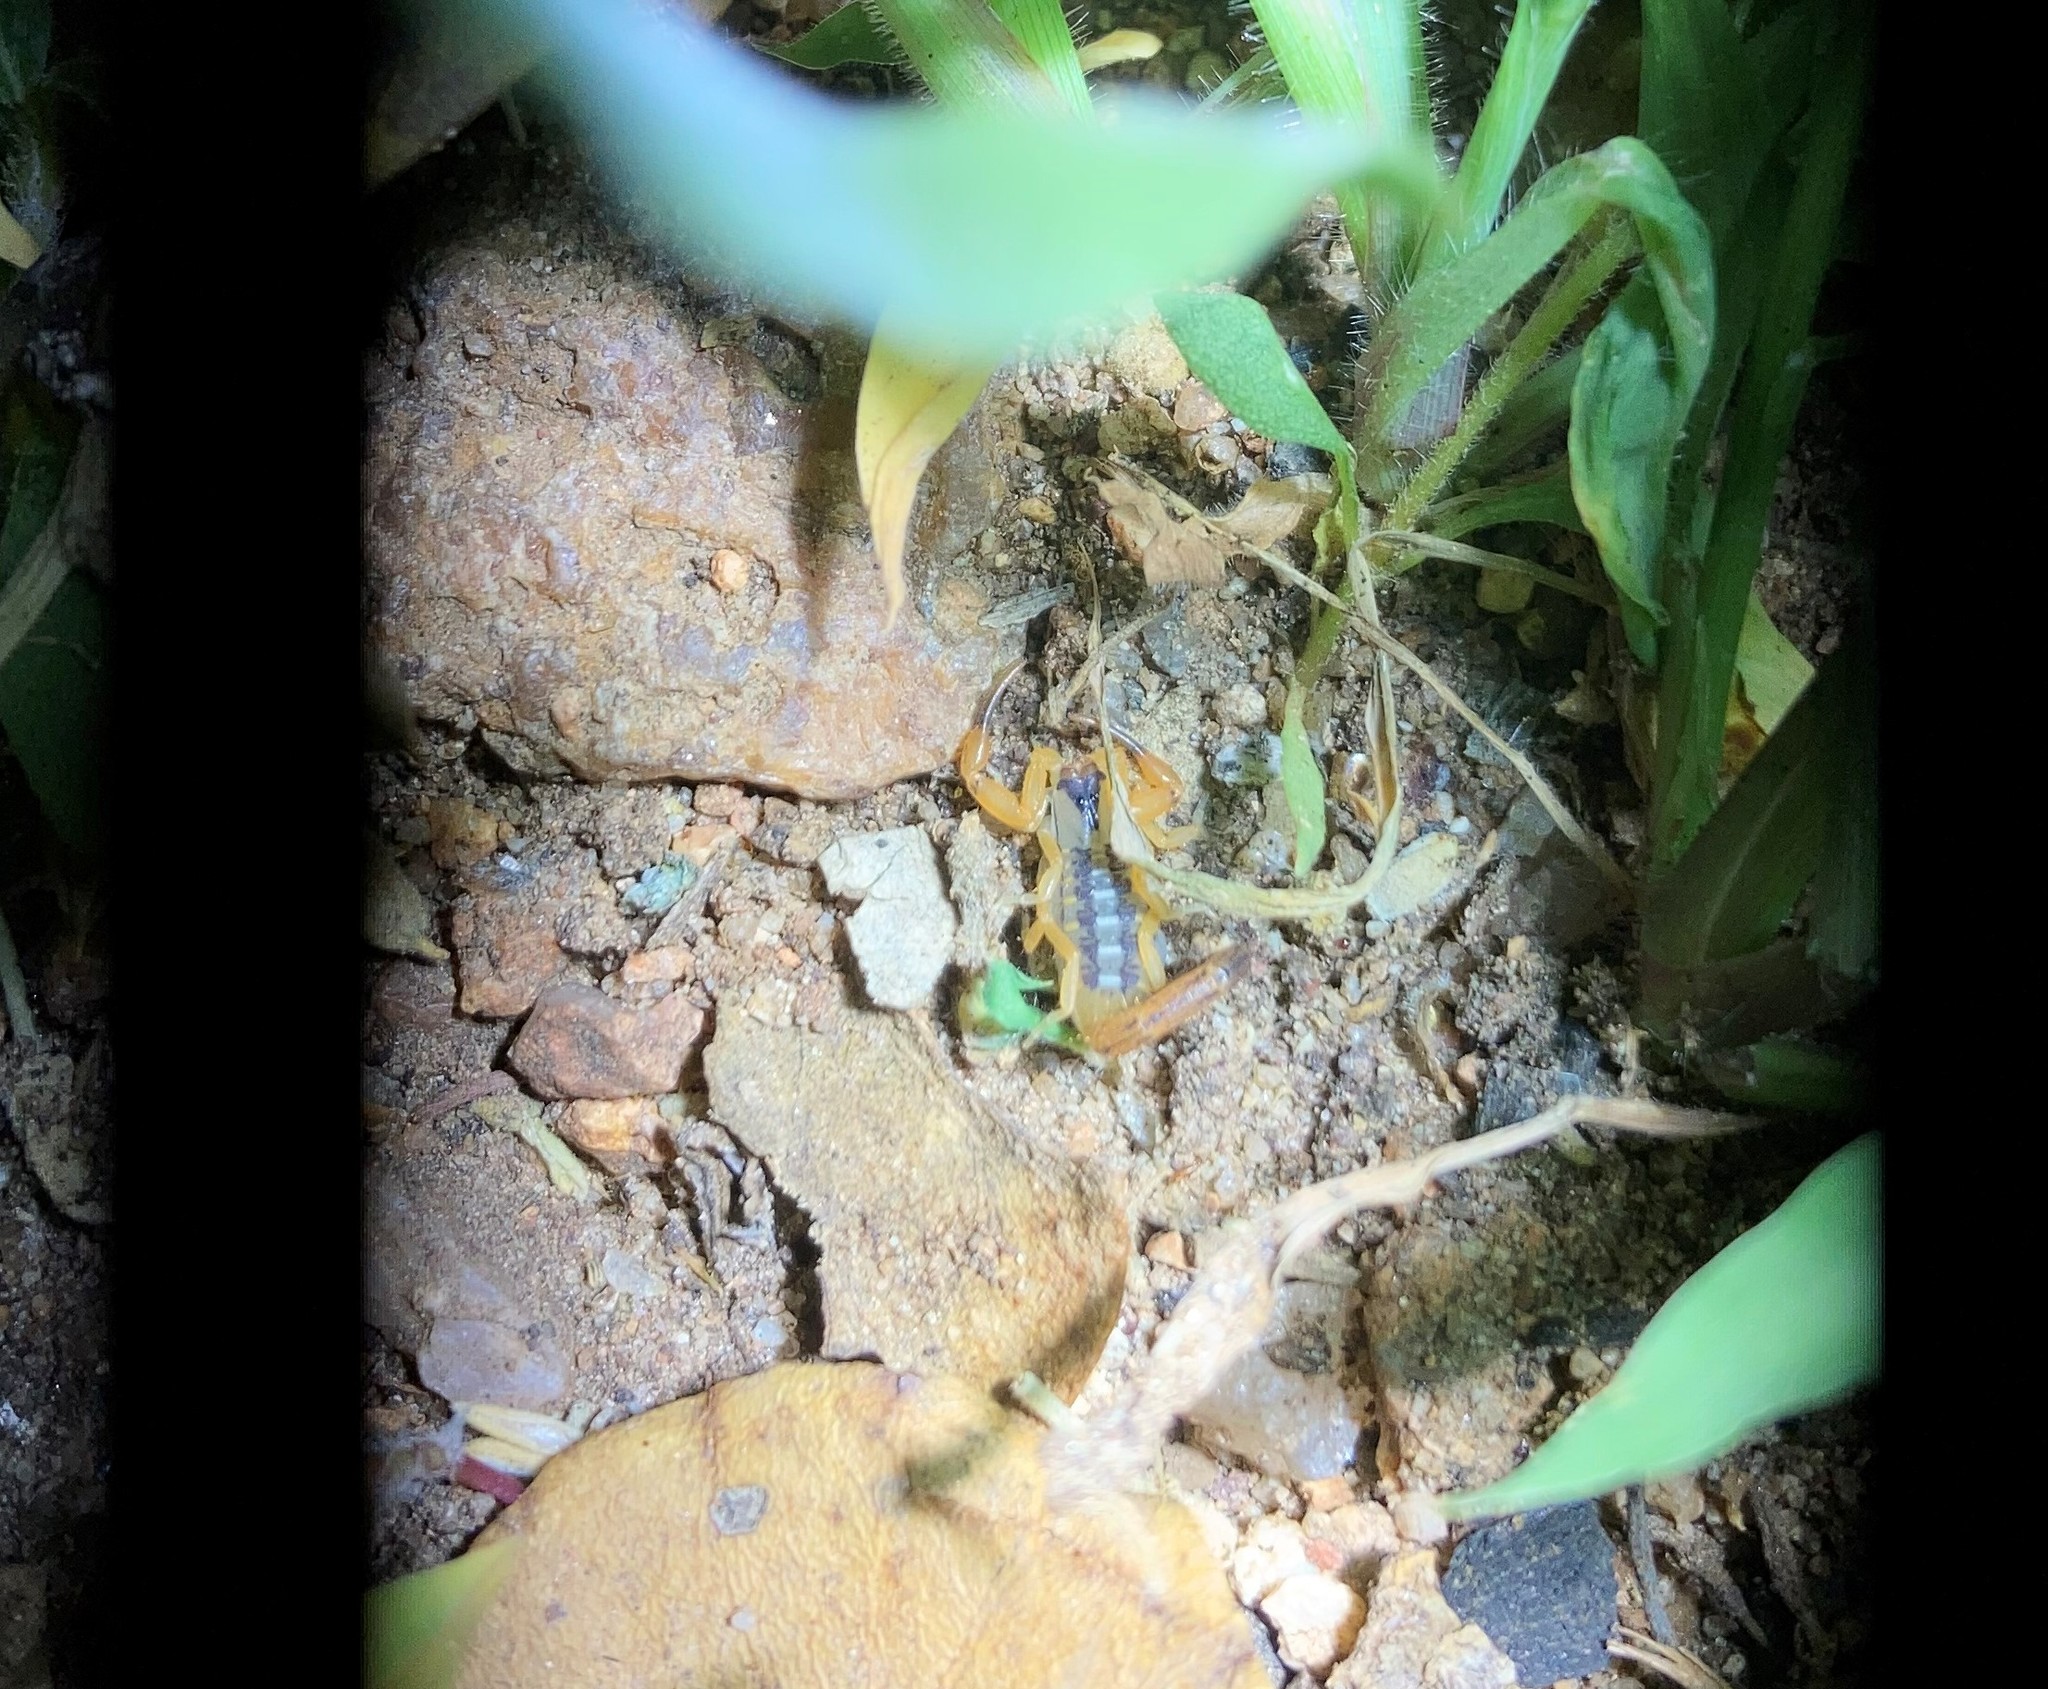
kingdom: Animalia
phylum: Arthropoda
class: Arachnida
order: Scorpiones
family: Buthidae
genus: Uroplectes
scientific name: Uroplectes vittatus
